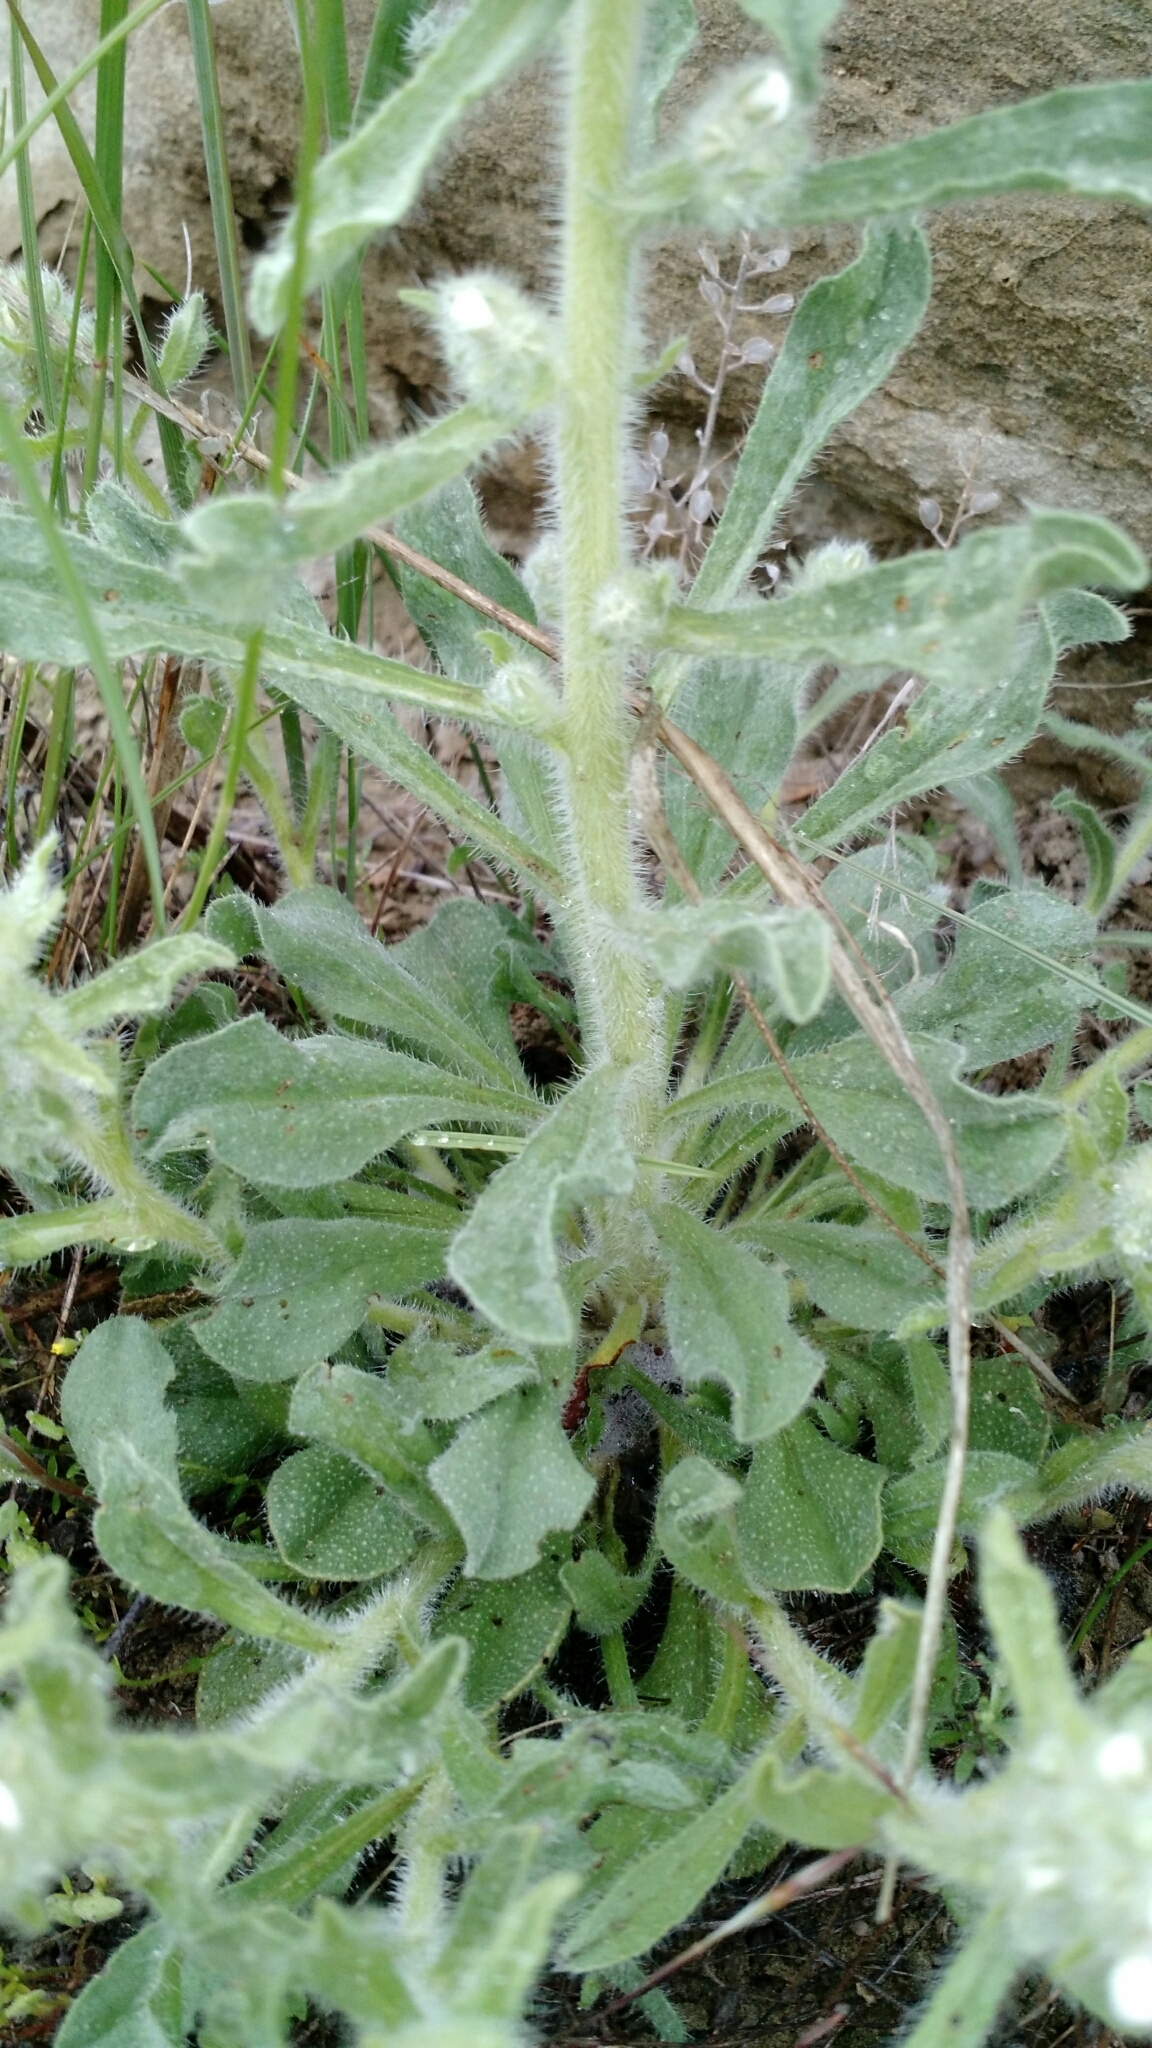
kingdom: Plantae
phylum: Tracheophyta
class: Magnoliopsida
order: Boraginales
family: Boraginaceae
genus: Oreocarya
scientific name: Oreocarya glomerata
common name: Macoun's cryptantha
